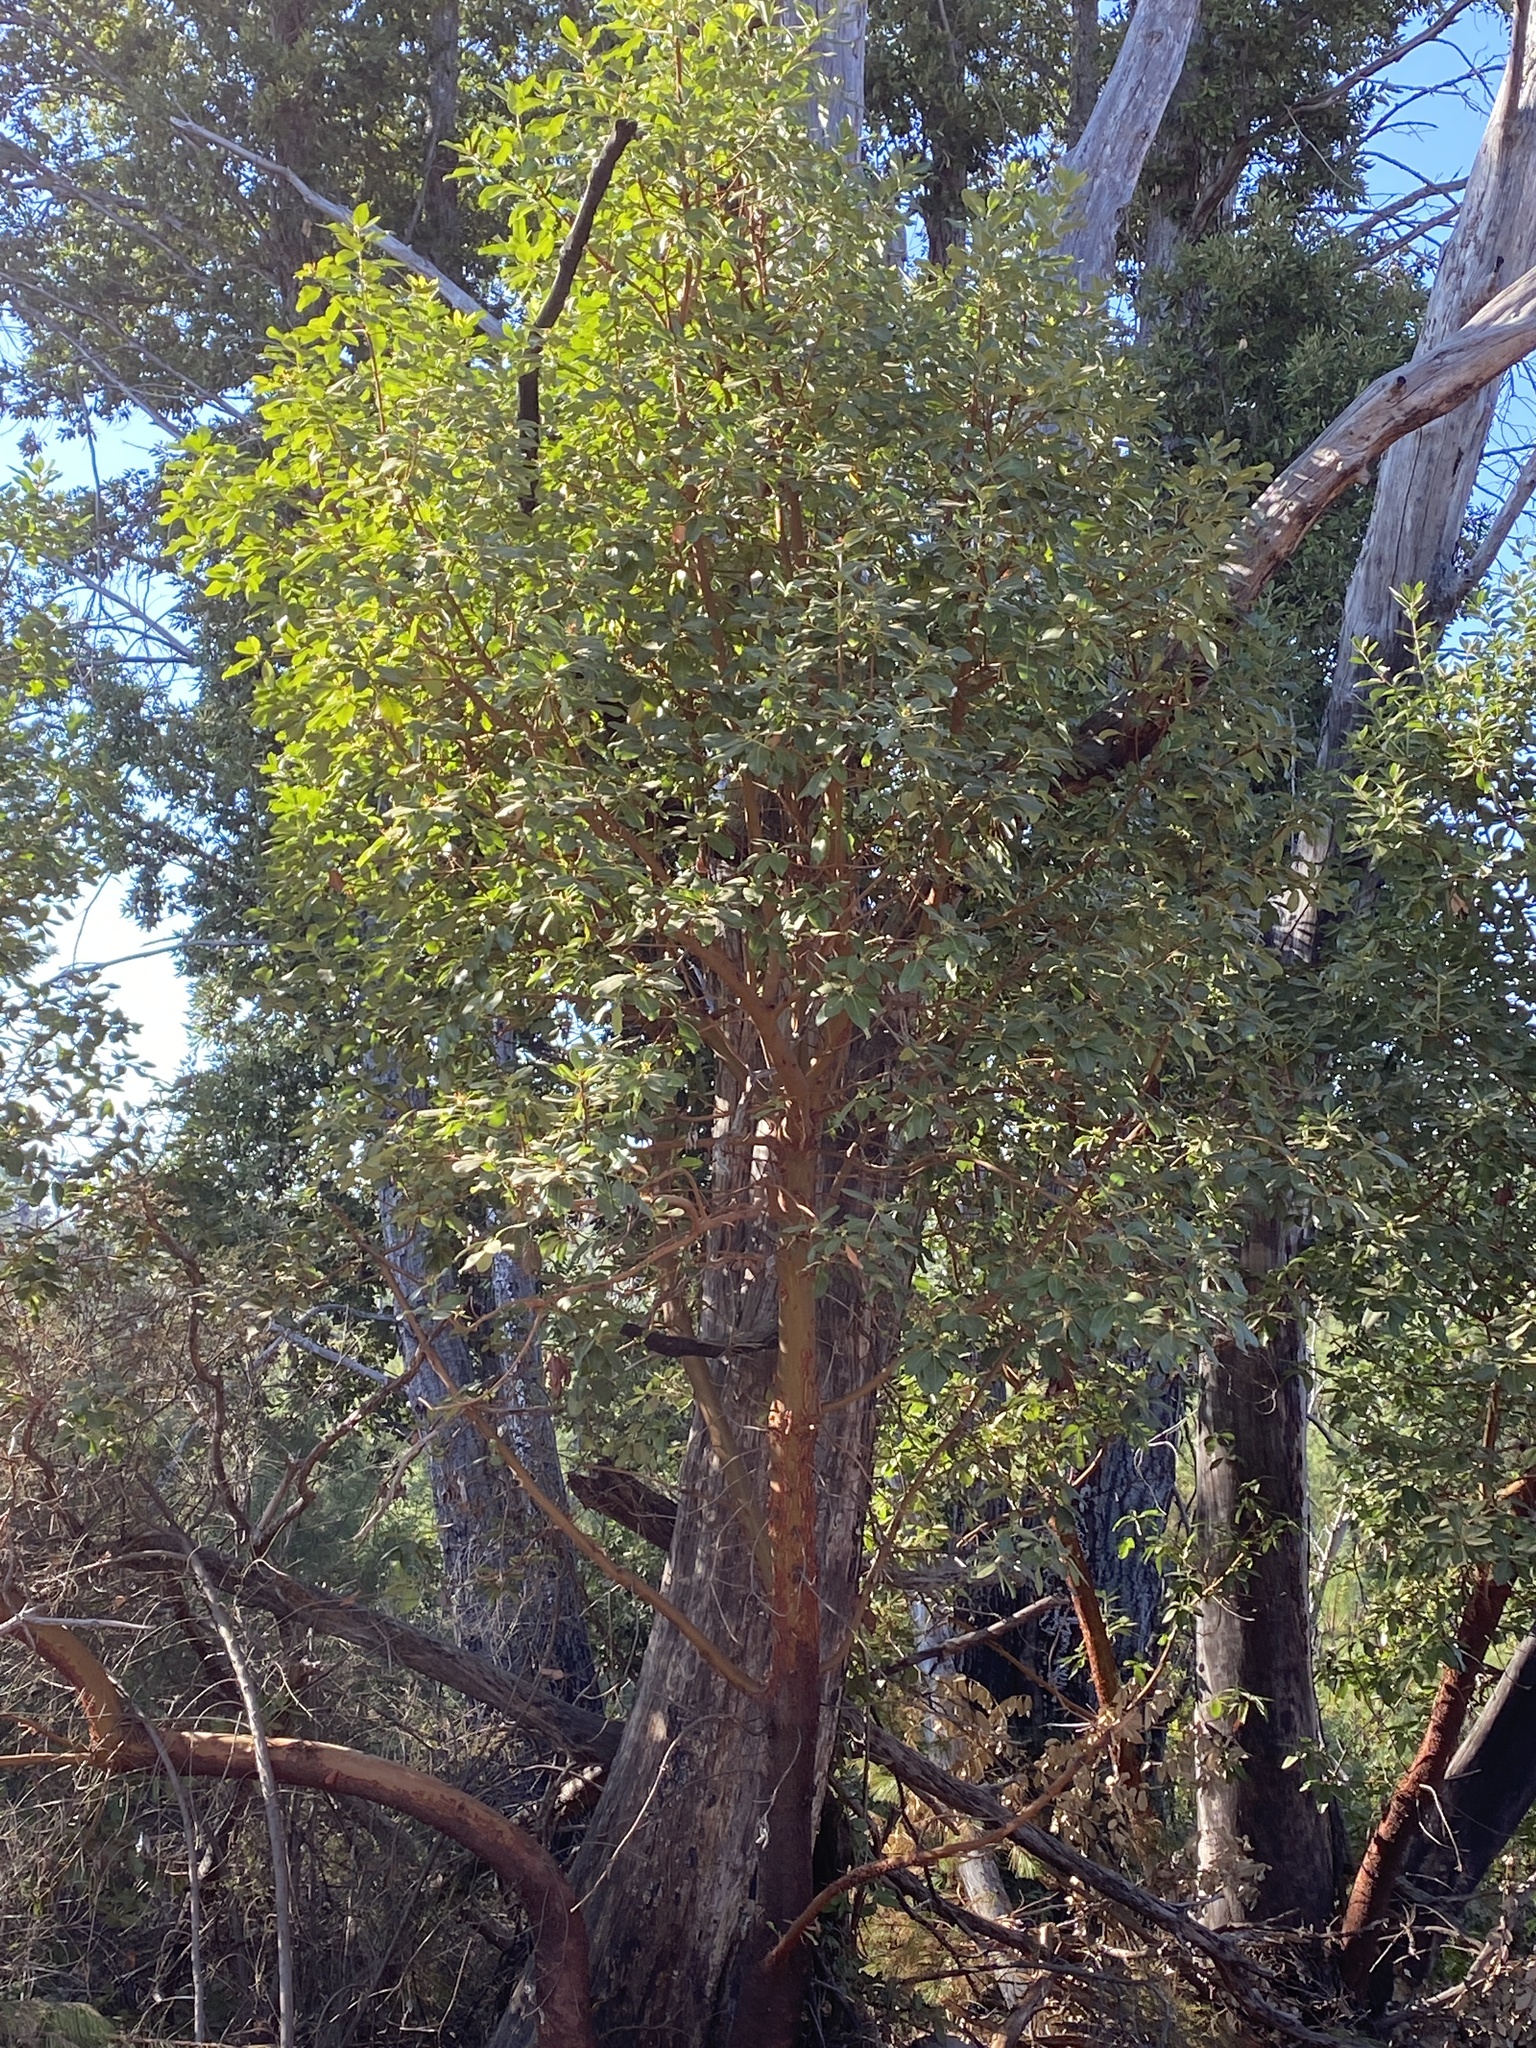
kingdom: Plantae
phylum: Tracheophyta
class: Magnoliopsida
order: Ericales
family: Ericaceae
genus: Arbutus
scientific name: Arbutus menziesii
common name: Pacific madrone
